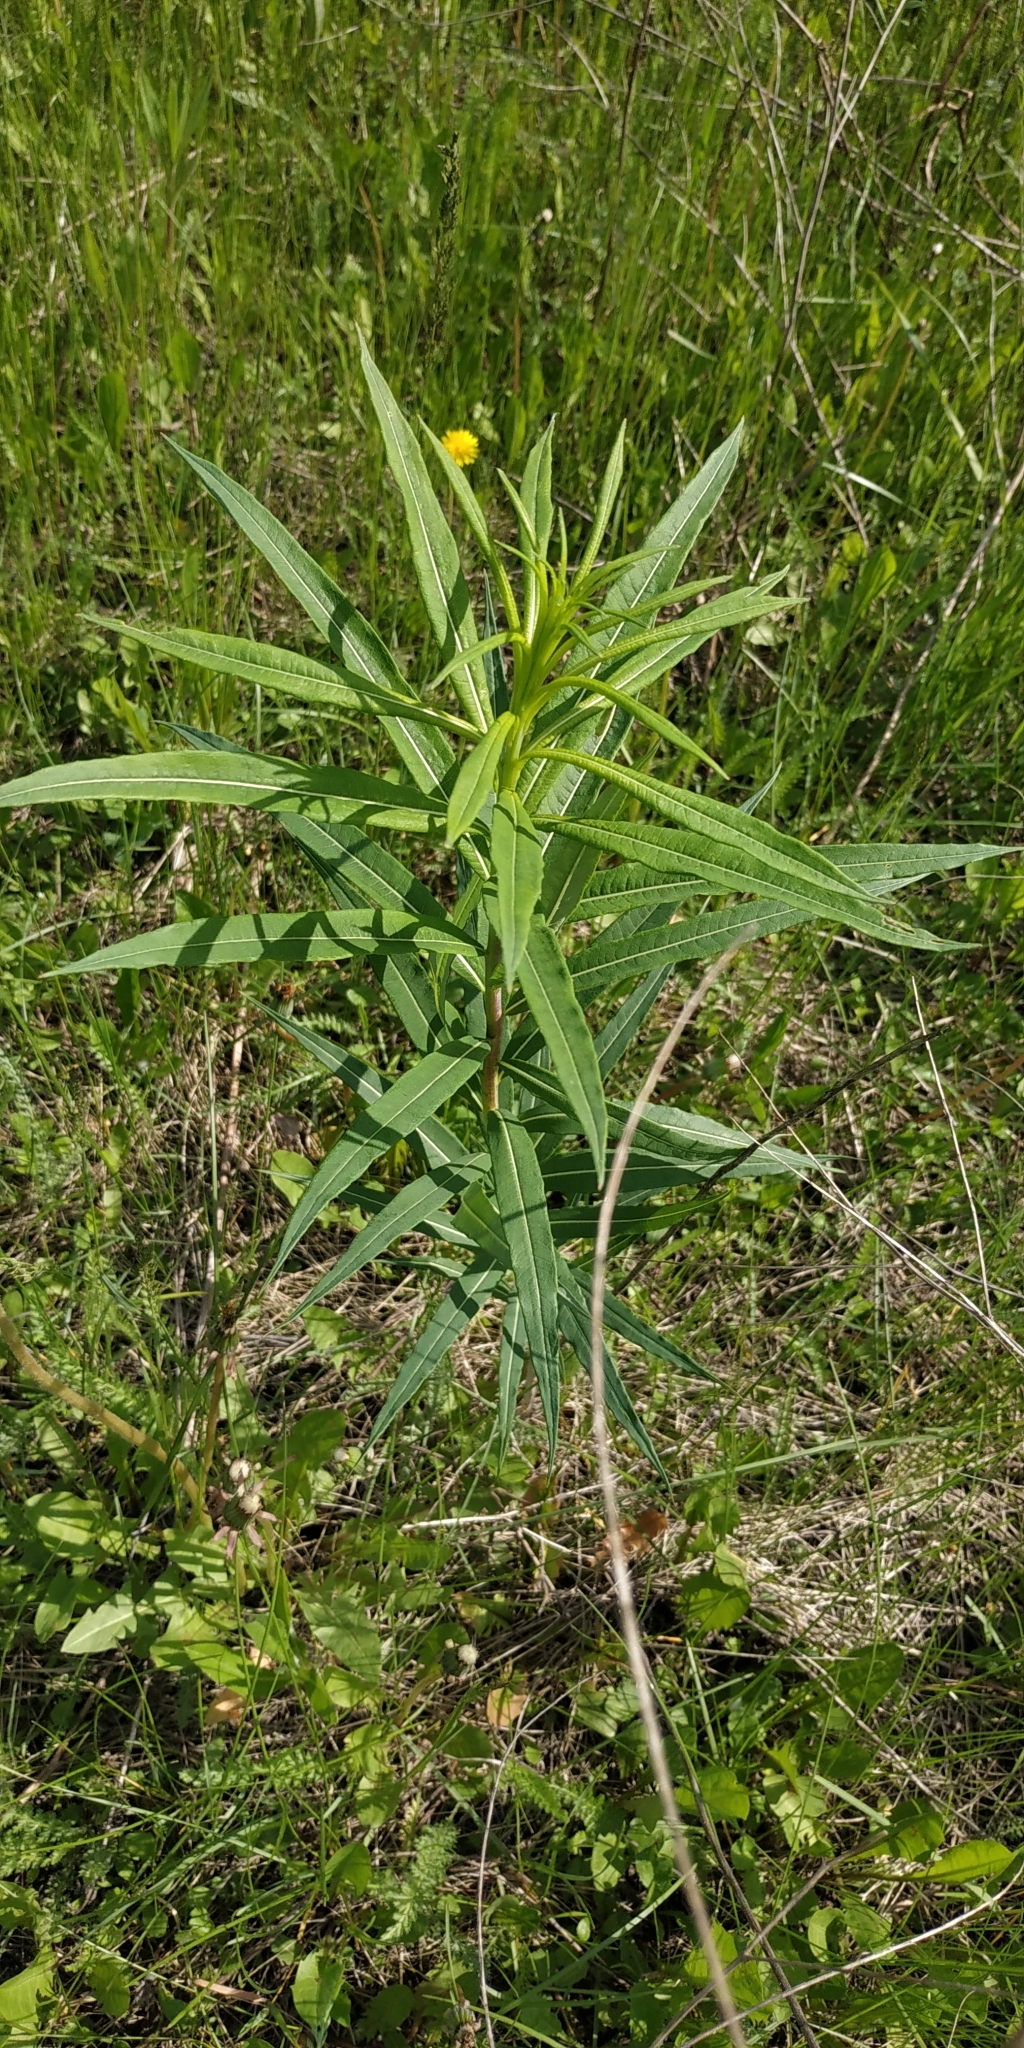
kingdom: Plantae
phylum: Tracheophyta
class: Magnoliopsida
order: Myrtales
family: Onagraceae
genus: Chamaenerion
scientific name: Chamaenerion angustifolium
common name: Fireweed
